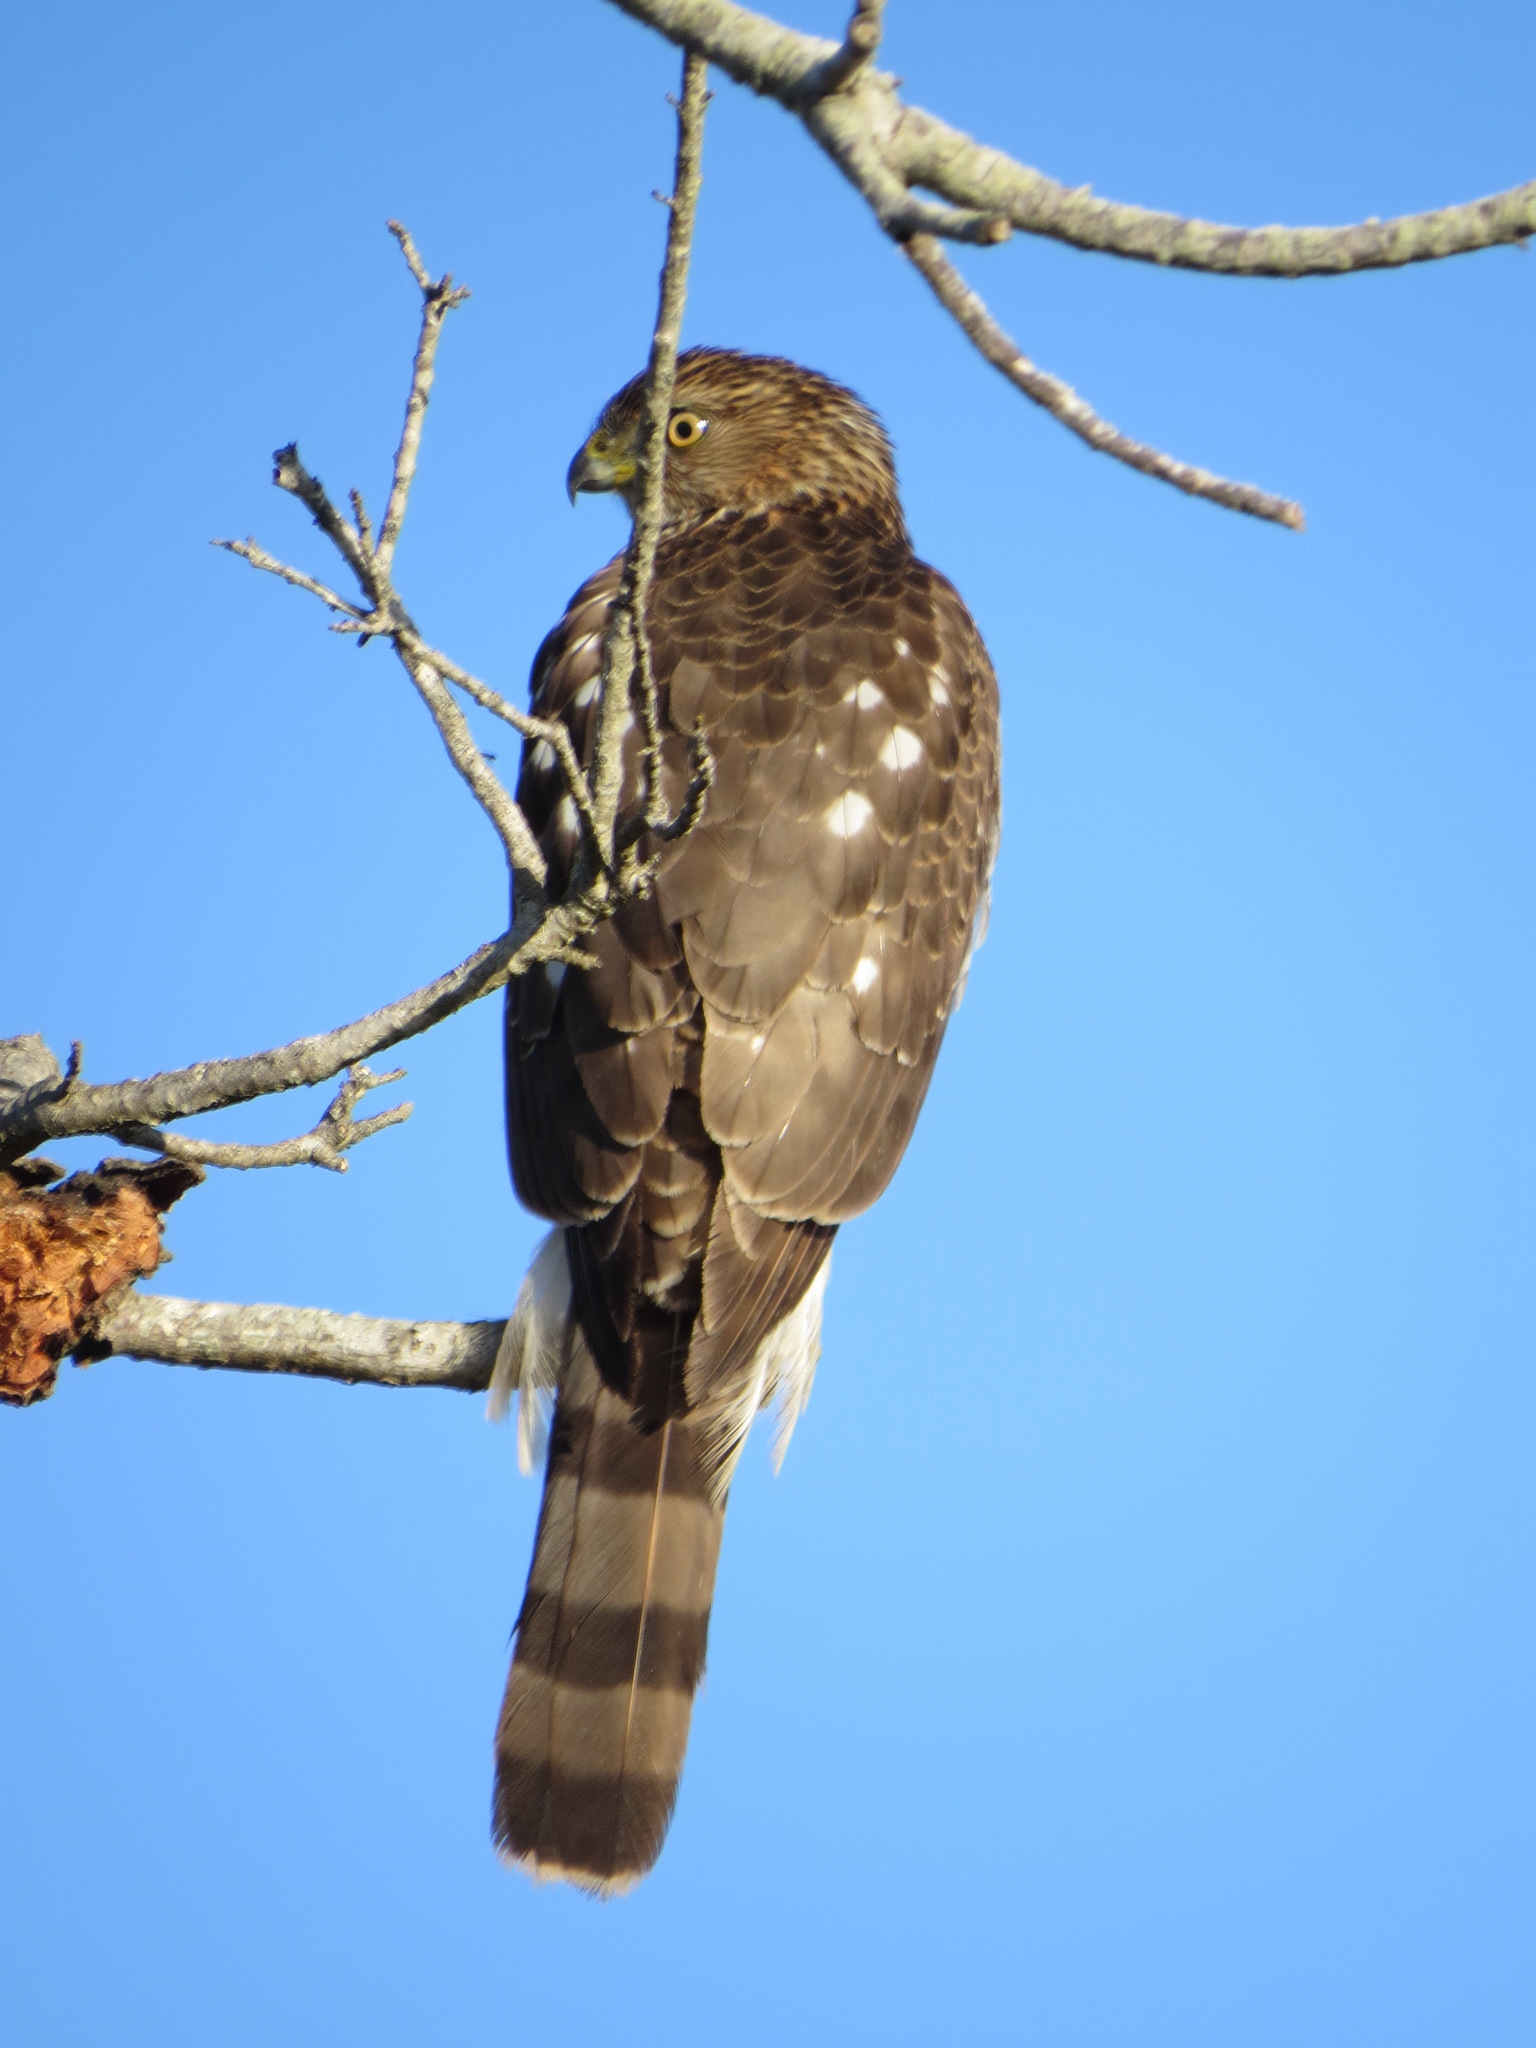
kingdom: Animalia
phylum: Chordata
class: Aves
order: Accipitriformes
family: Accipitridae
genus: Accipiter
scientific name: Accipiter cooperii
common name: Cooper's hawk
